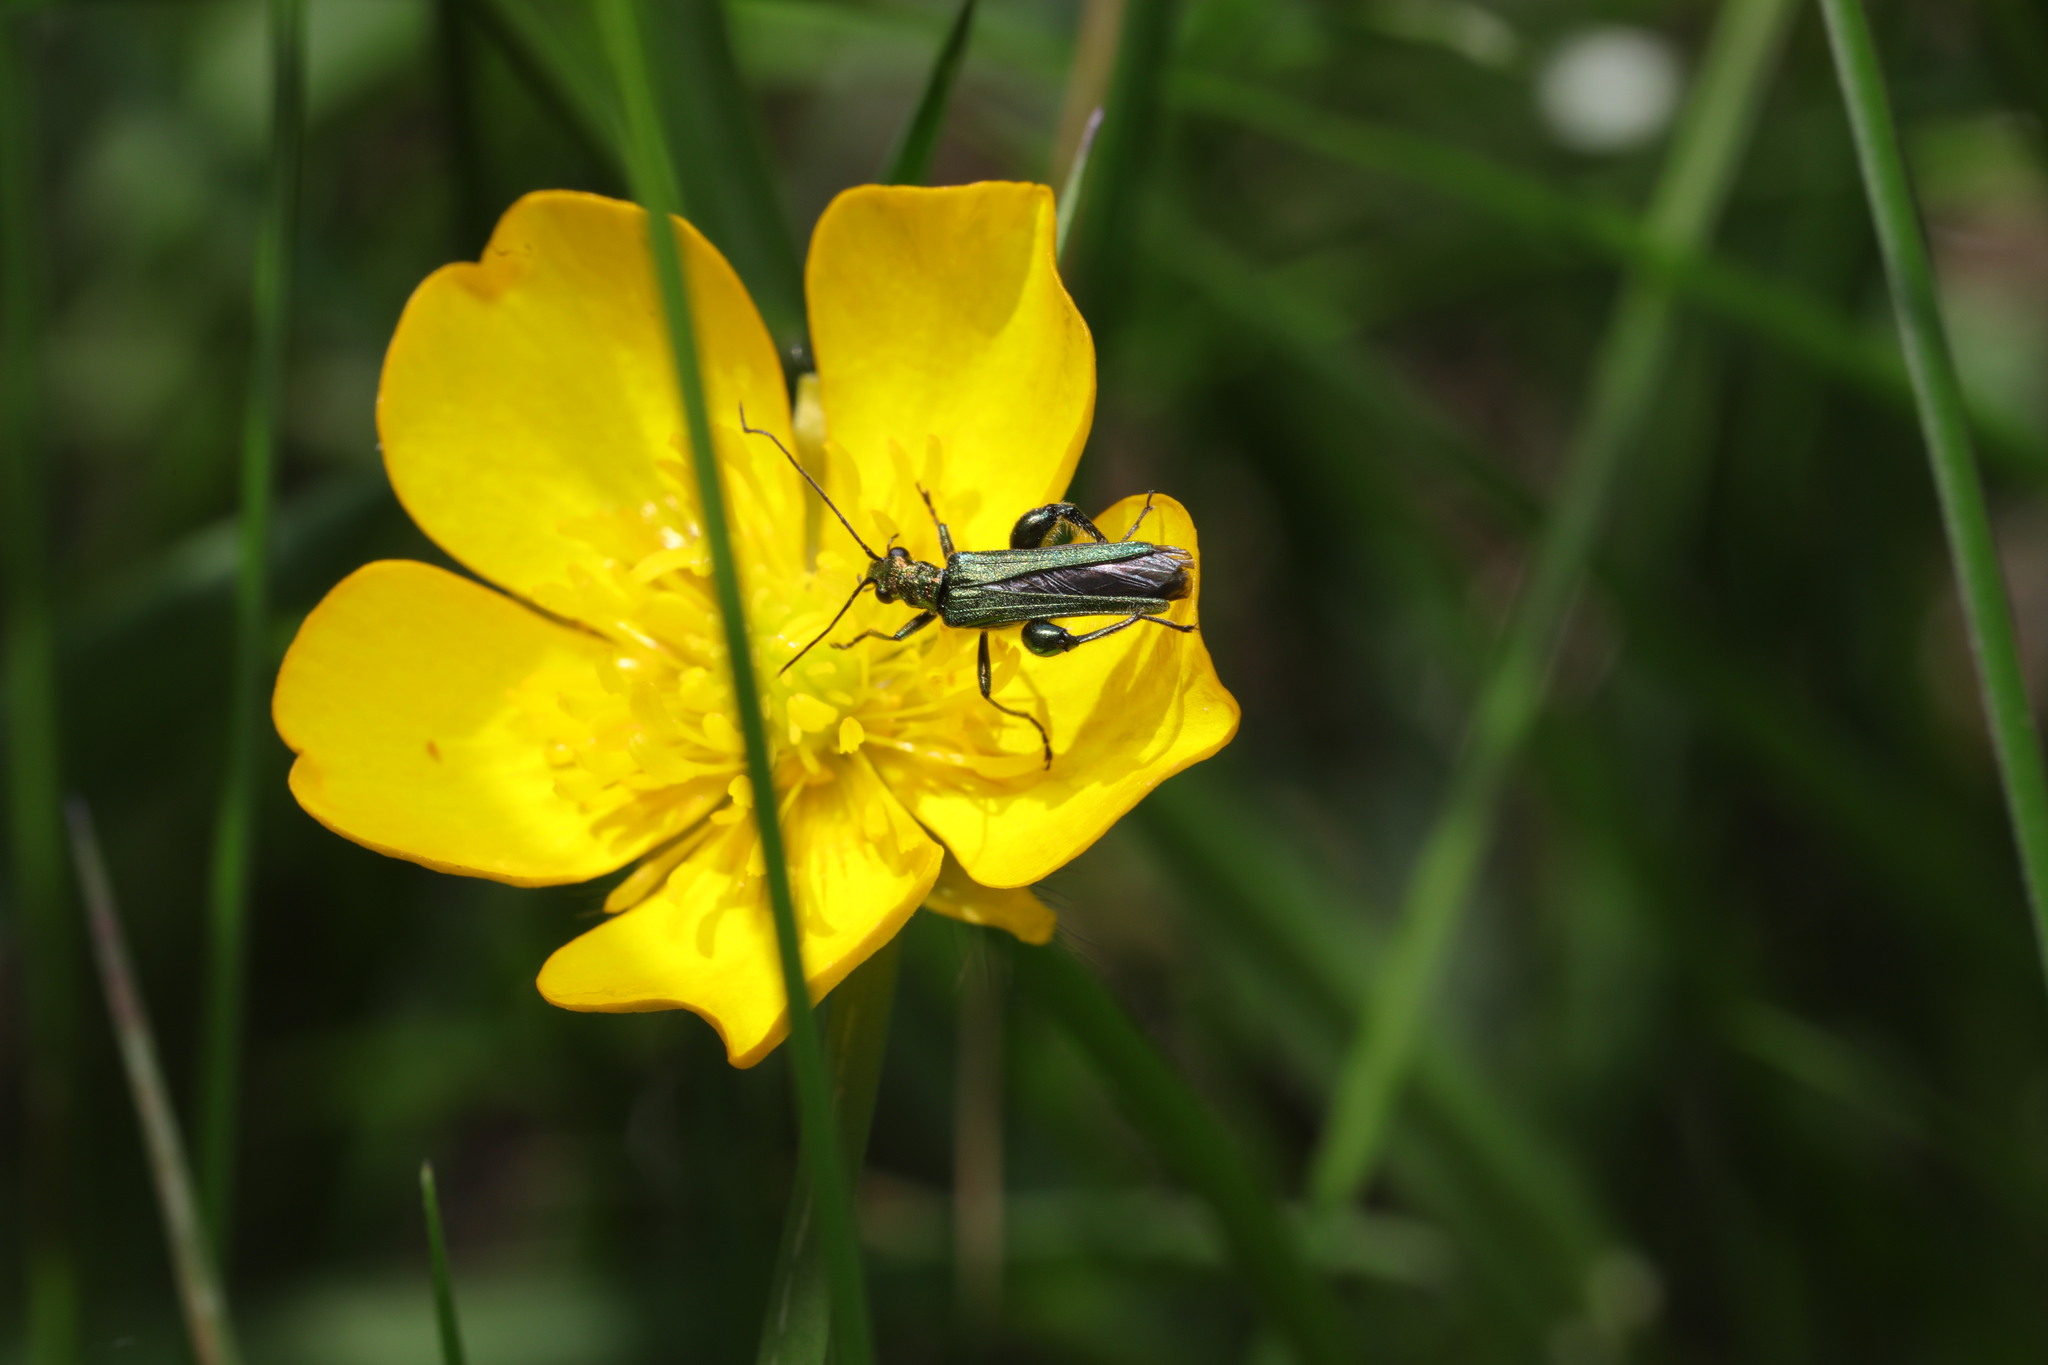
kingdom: Animalia
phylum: Arthropoda
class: Insecta
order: Coleoptera
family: Oedemeridae
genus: Oedemera
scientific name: Oedemera nobilis
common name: Swollen-thighed beetle
